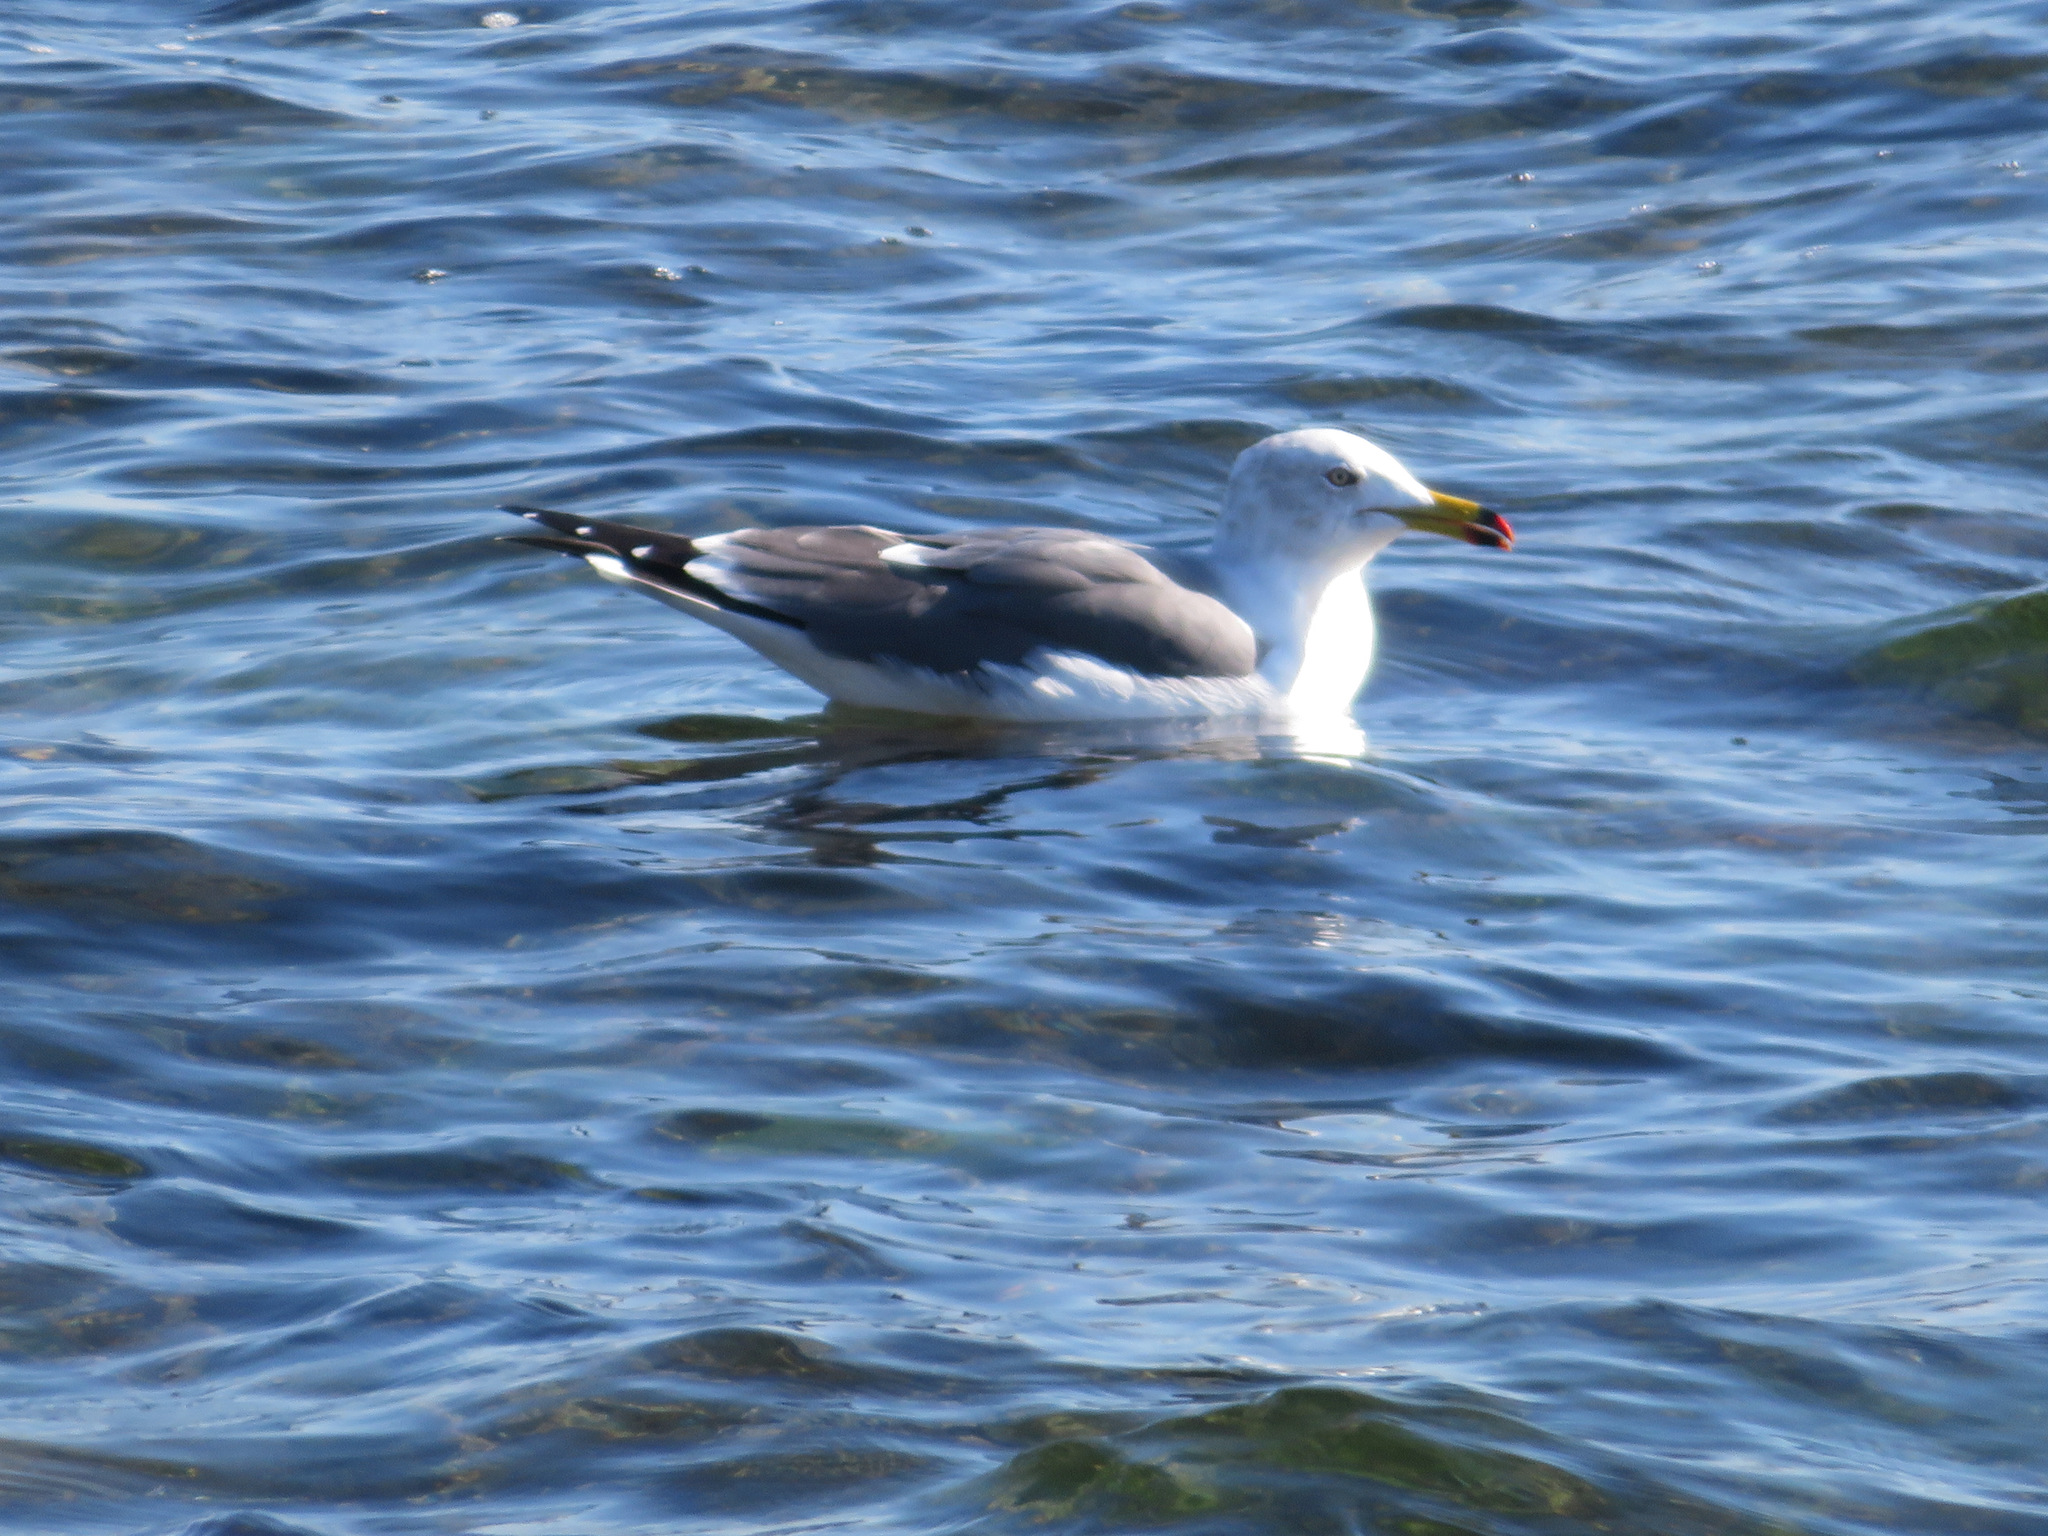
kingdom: Animalia
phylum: Chordata
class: Aves
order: Charadriiformes
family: Laridae
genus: Larus
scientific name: Larus crassirostris
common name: Black-tailed gull
